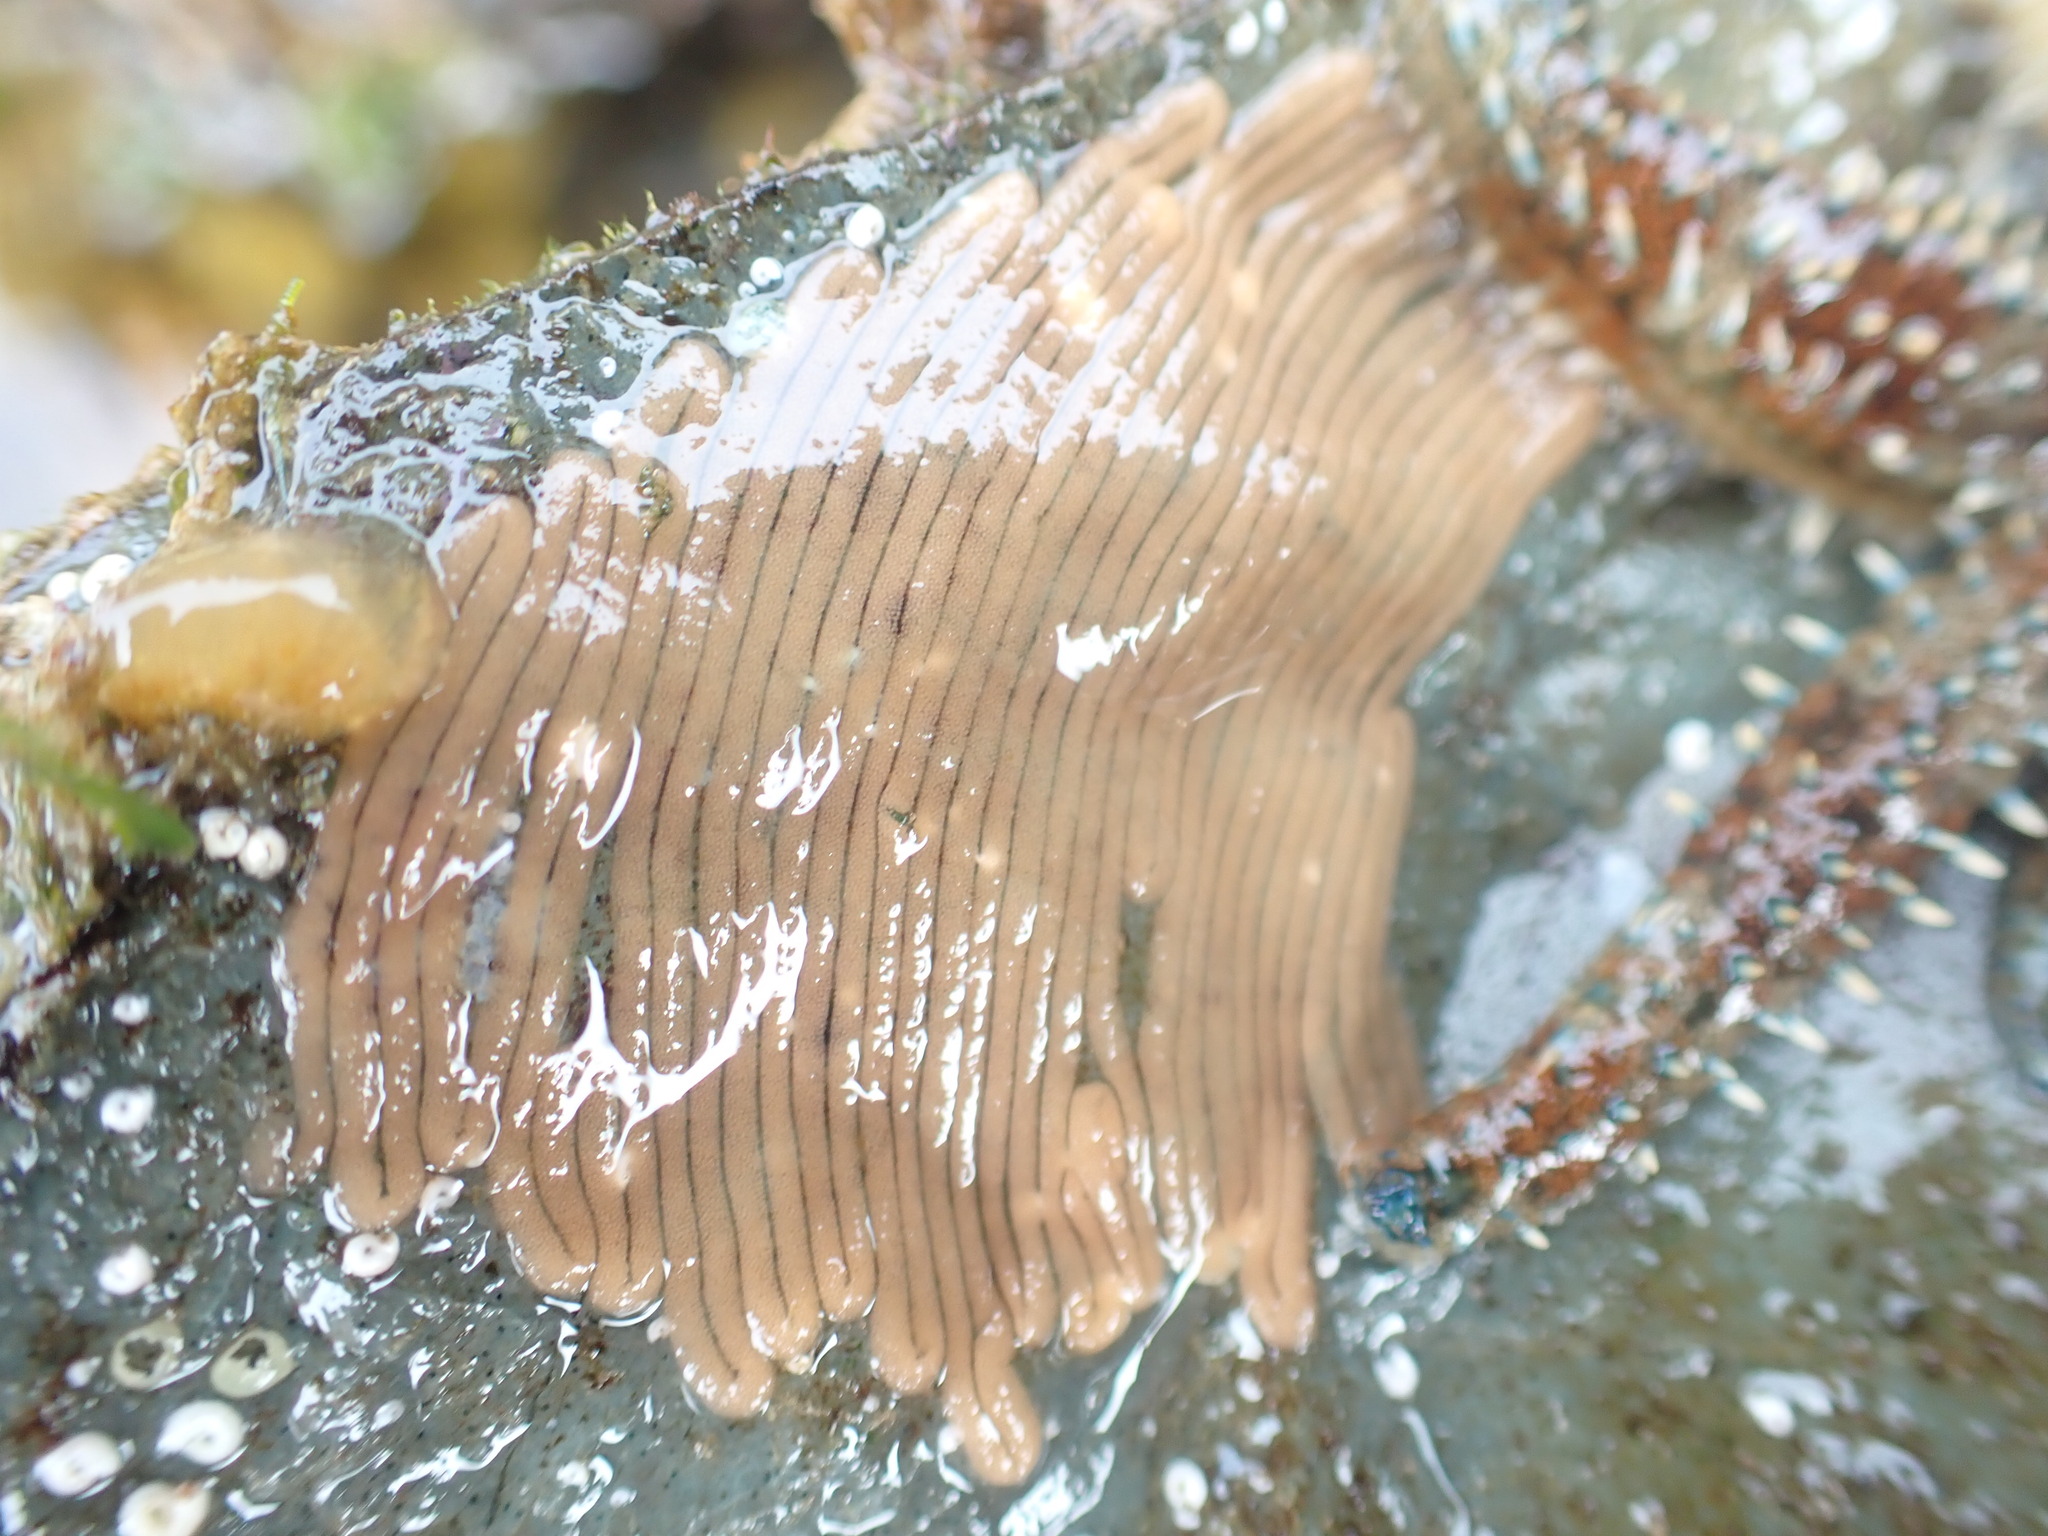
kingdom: Animalia
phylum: Mollusca
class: Gastropoda
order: Aplysiida
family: Aplysiidae
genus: Dolabrifera
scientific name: Dolabrifera brazieri
